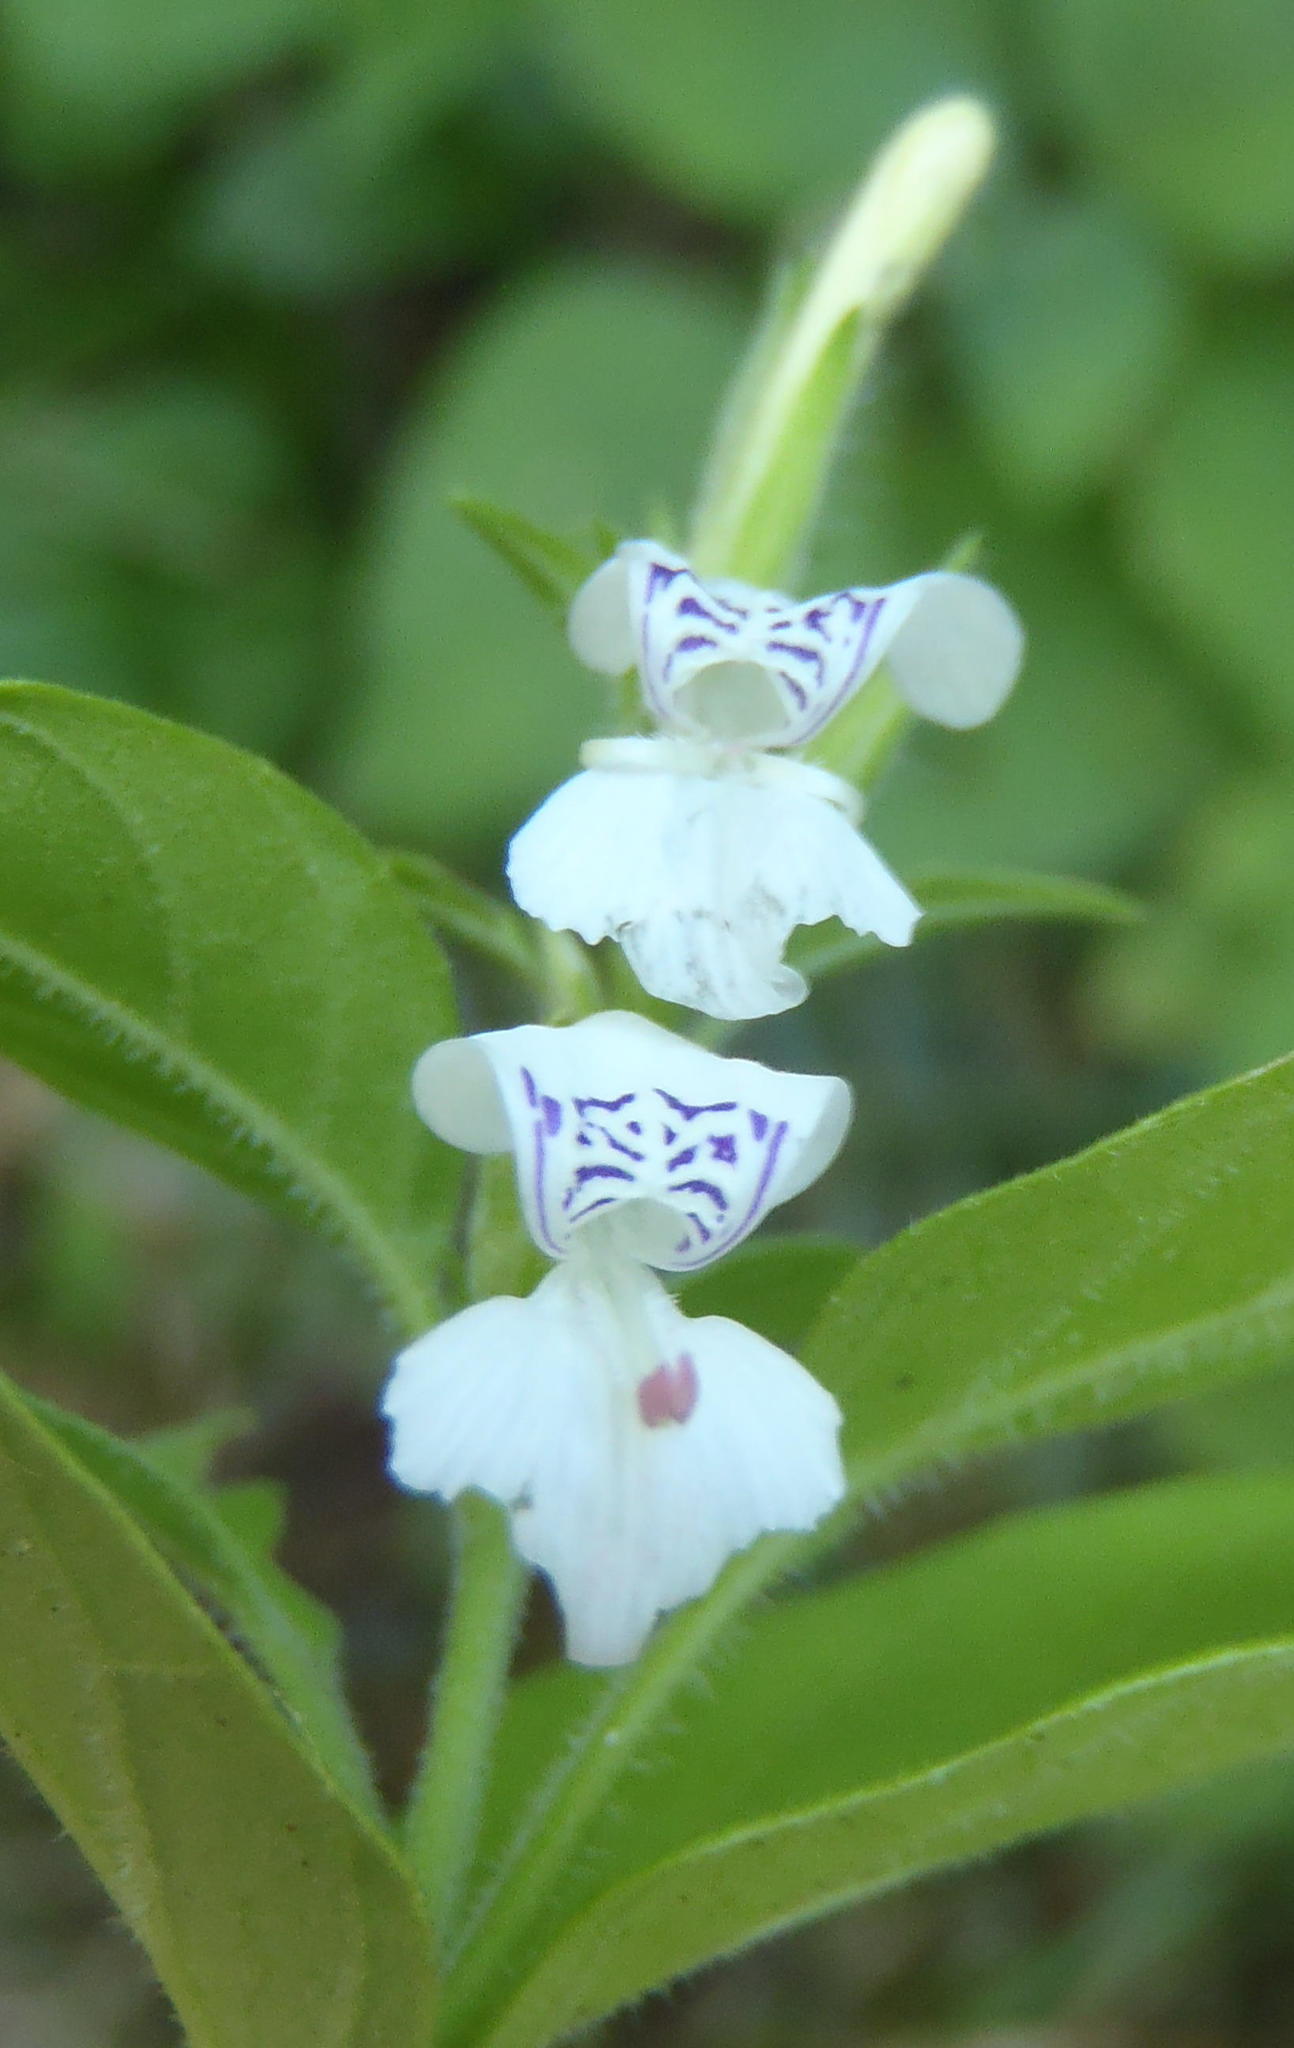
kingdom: Plantae
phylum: Tracheophyta
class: Magnoliopsida
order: Lamiales
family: Acanthaceae
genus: Hypoestes
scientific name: Hypoestes forskaolii
